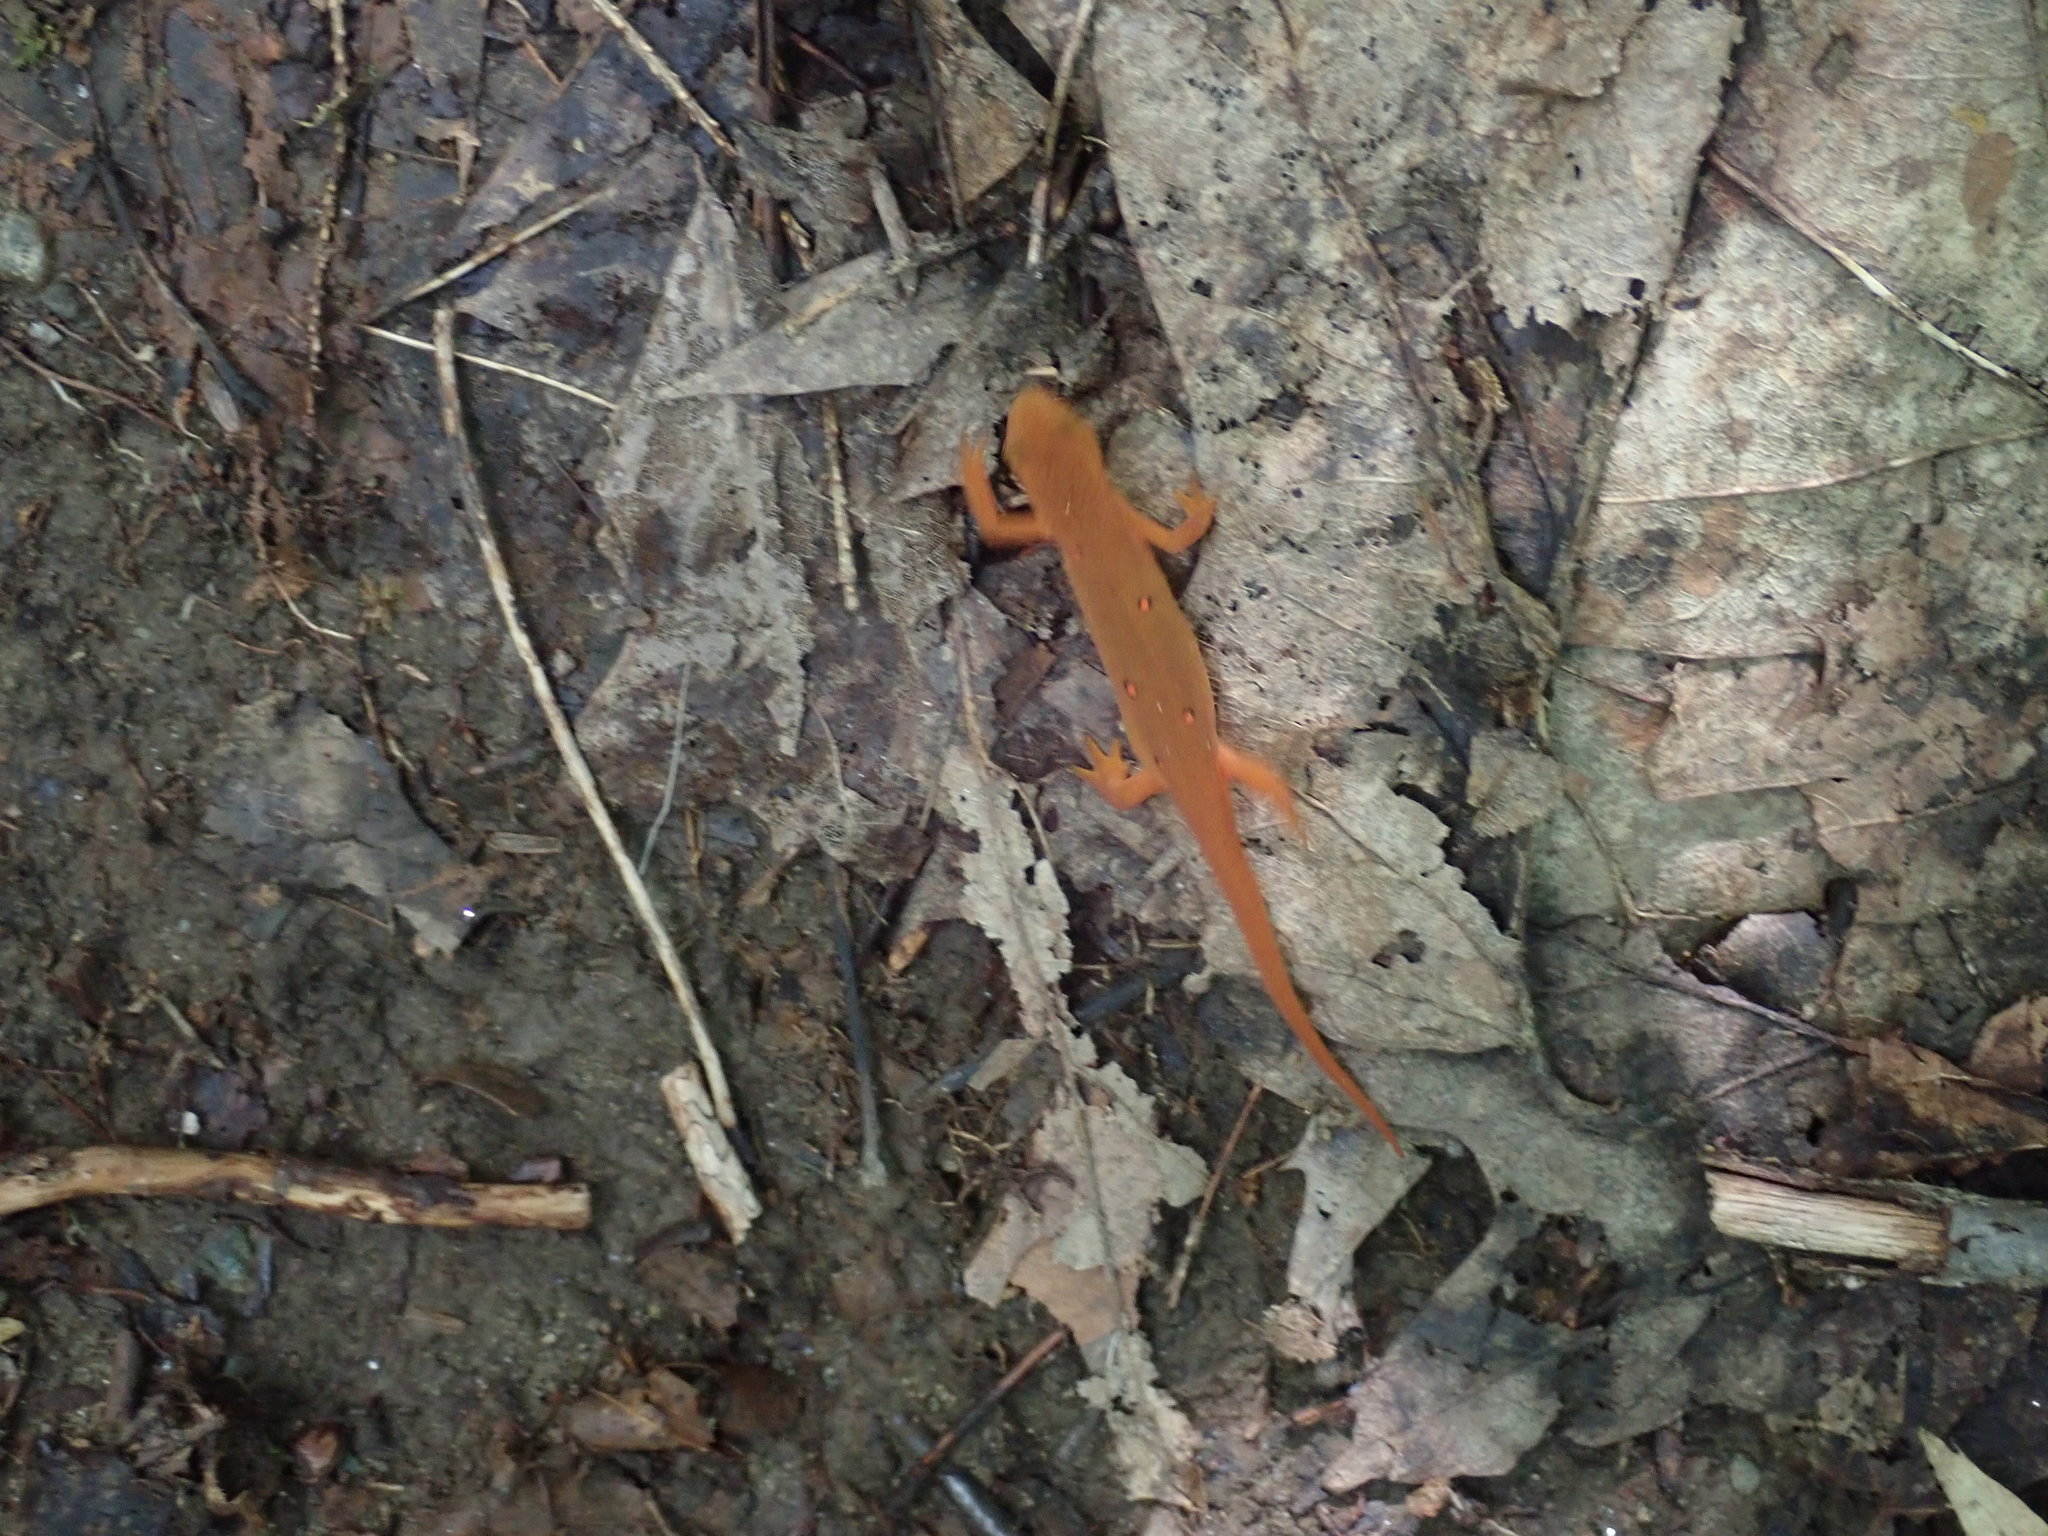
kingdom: Animalia
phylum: Chordata
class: Amphibia
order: Caudata
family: Salamandridae
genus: Notophthalmus
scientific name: Notophthalmus viridescens
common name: Eastern newt
